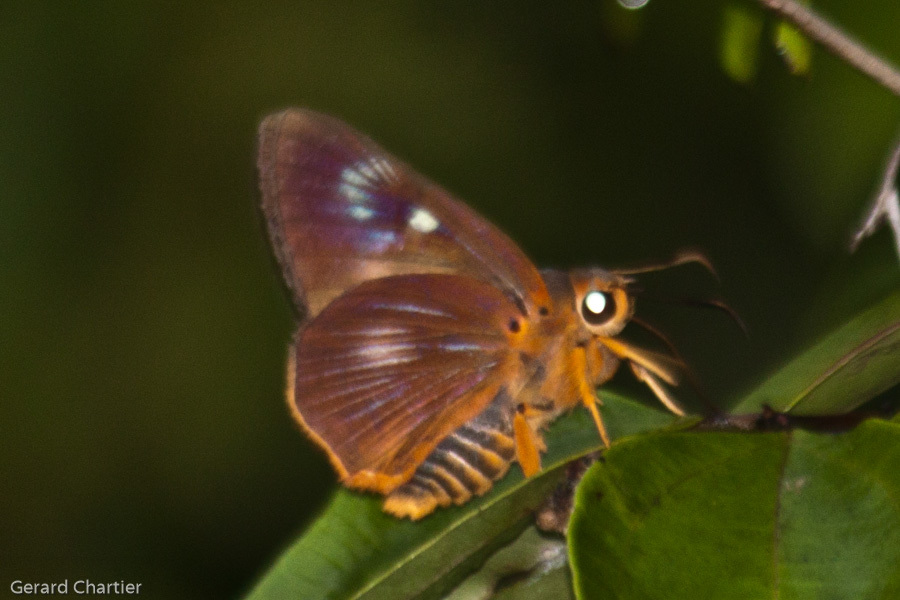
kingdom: Animalia
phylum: Arthropoda
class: Insecta
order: Lepidoptera
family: Hesperiidae
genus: Bibasis
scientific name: Bibasis jaina
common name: Common orange awlet
